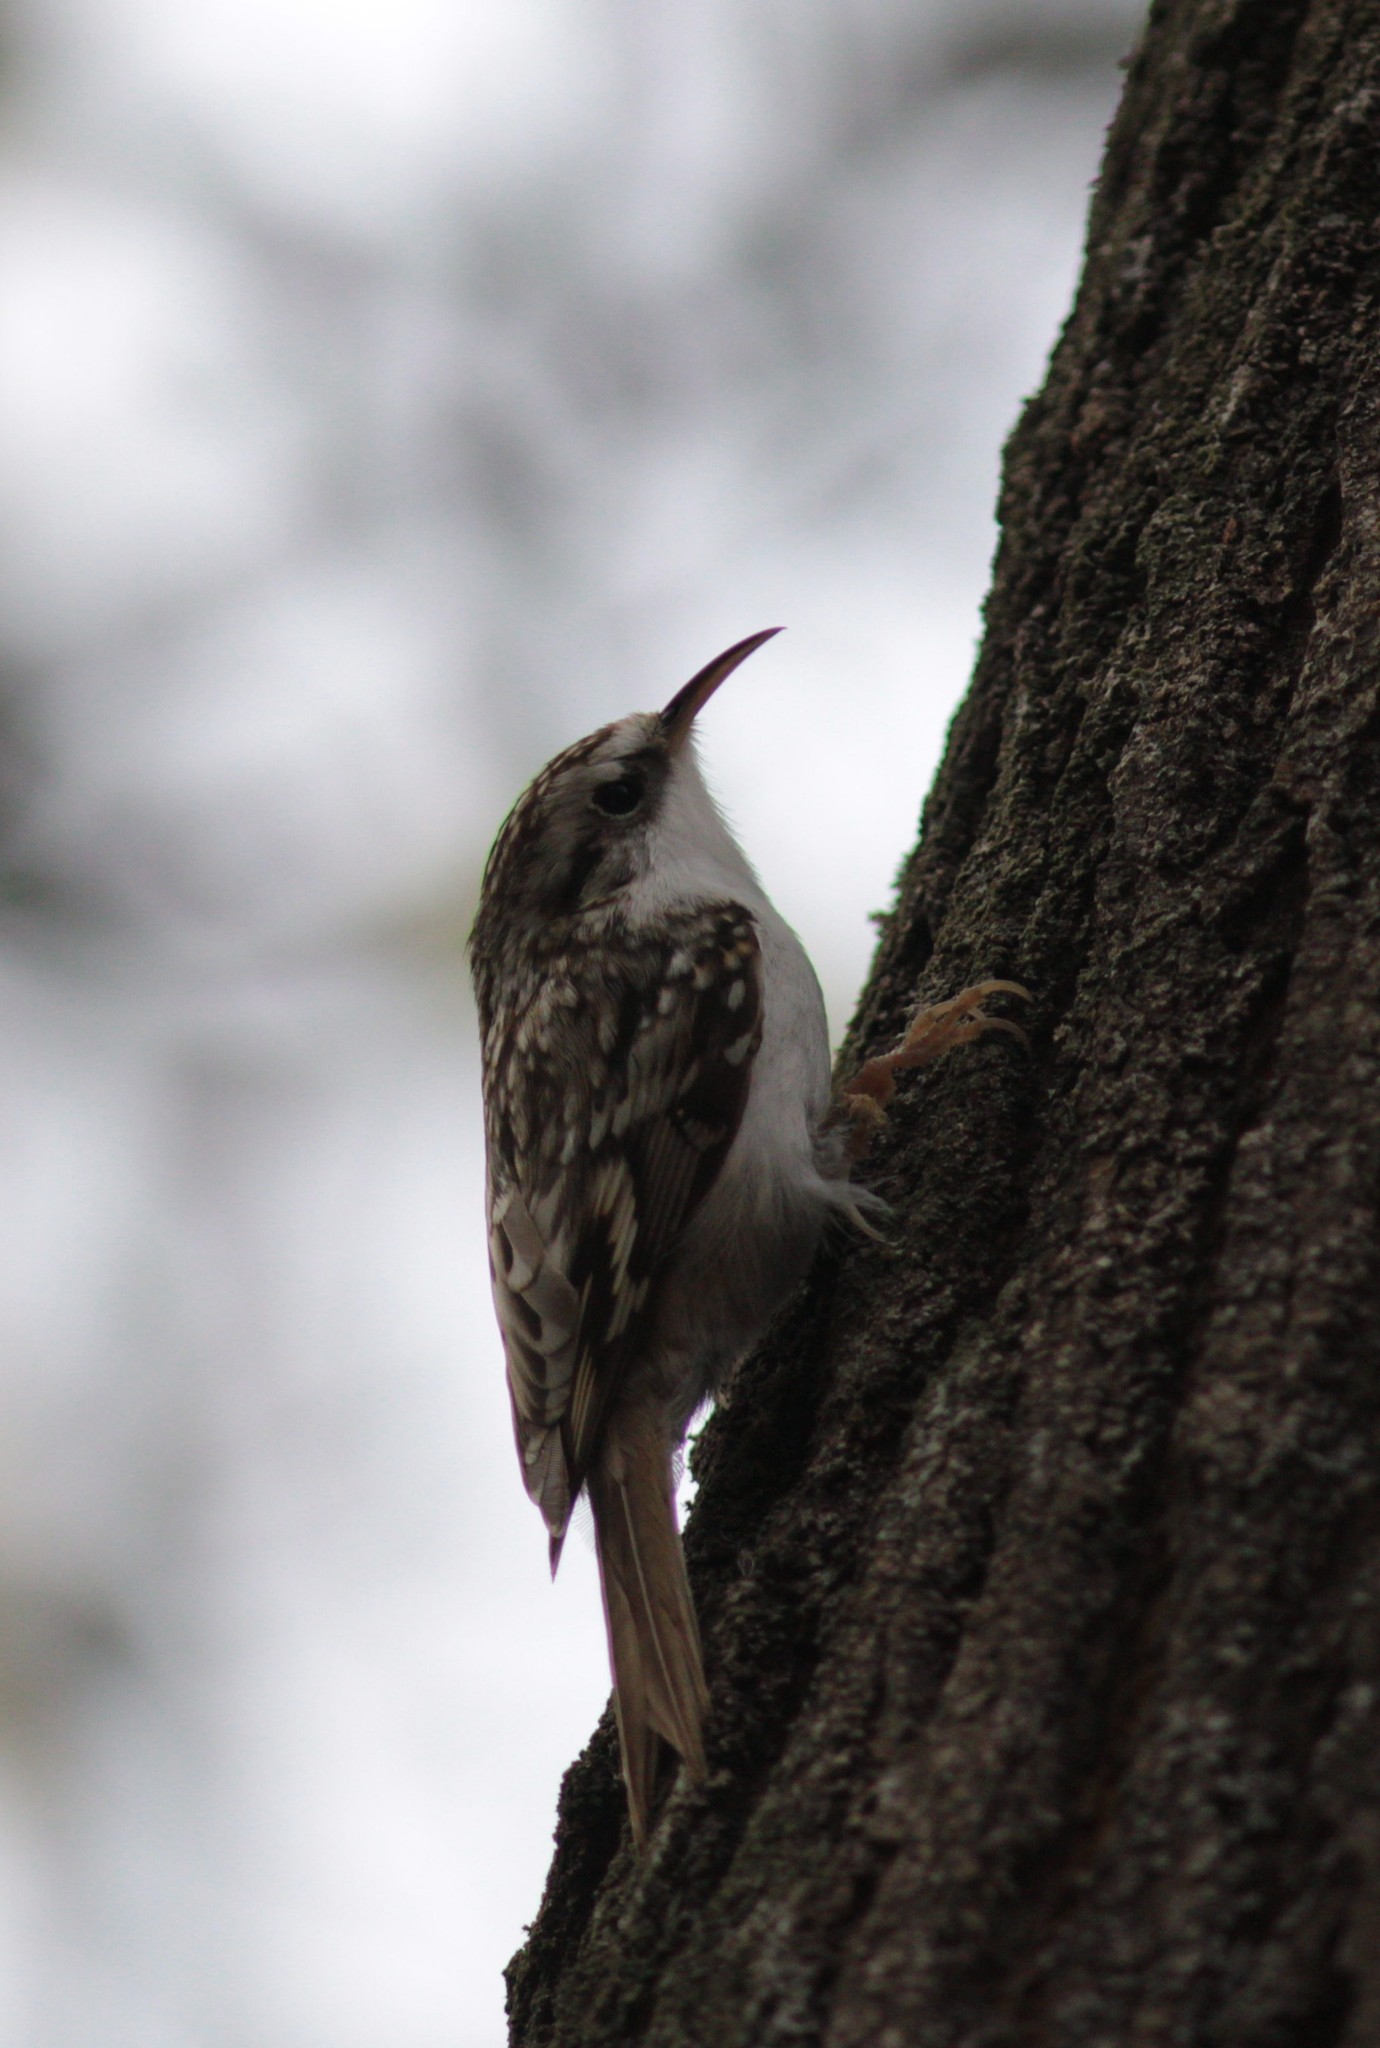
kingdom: Animalia
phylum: Chordata
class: Aves
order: Passeriformes
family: Certhiidae
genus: Certhia
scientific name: Certhia familiaris
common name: Eurasian treecreeper
